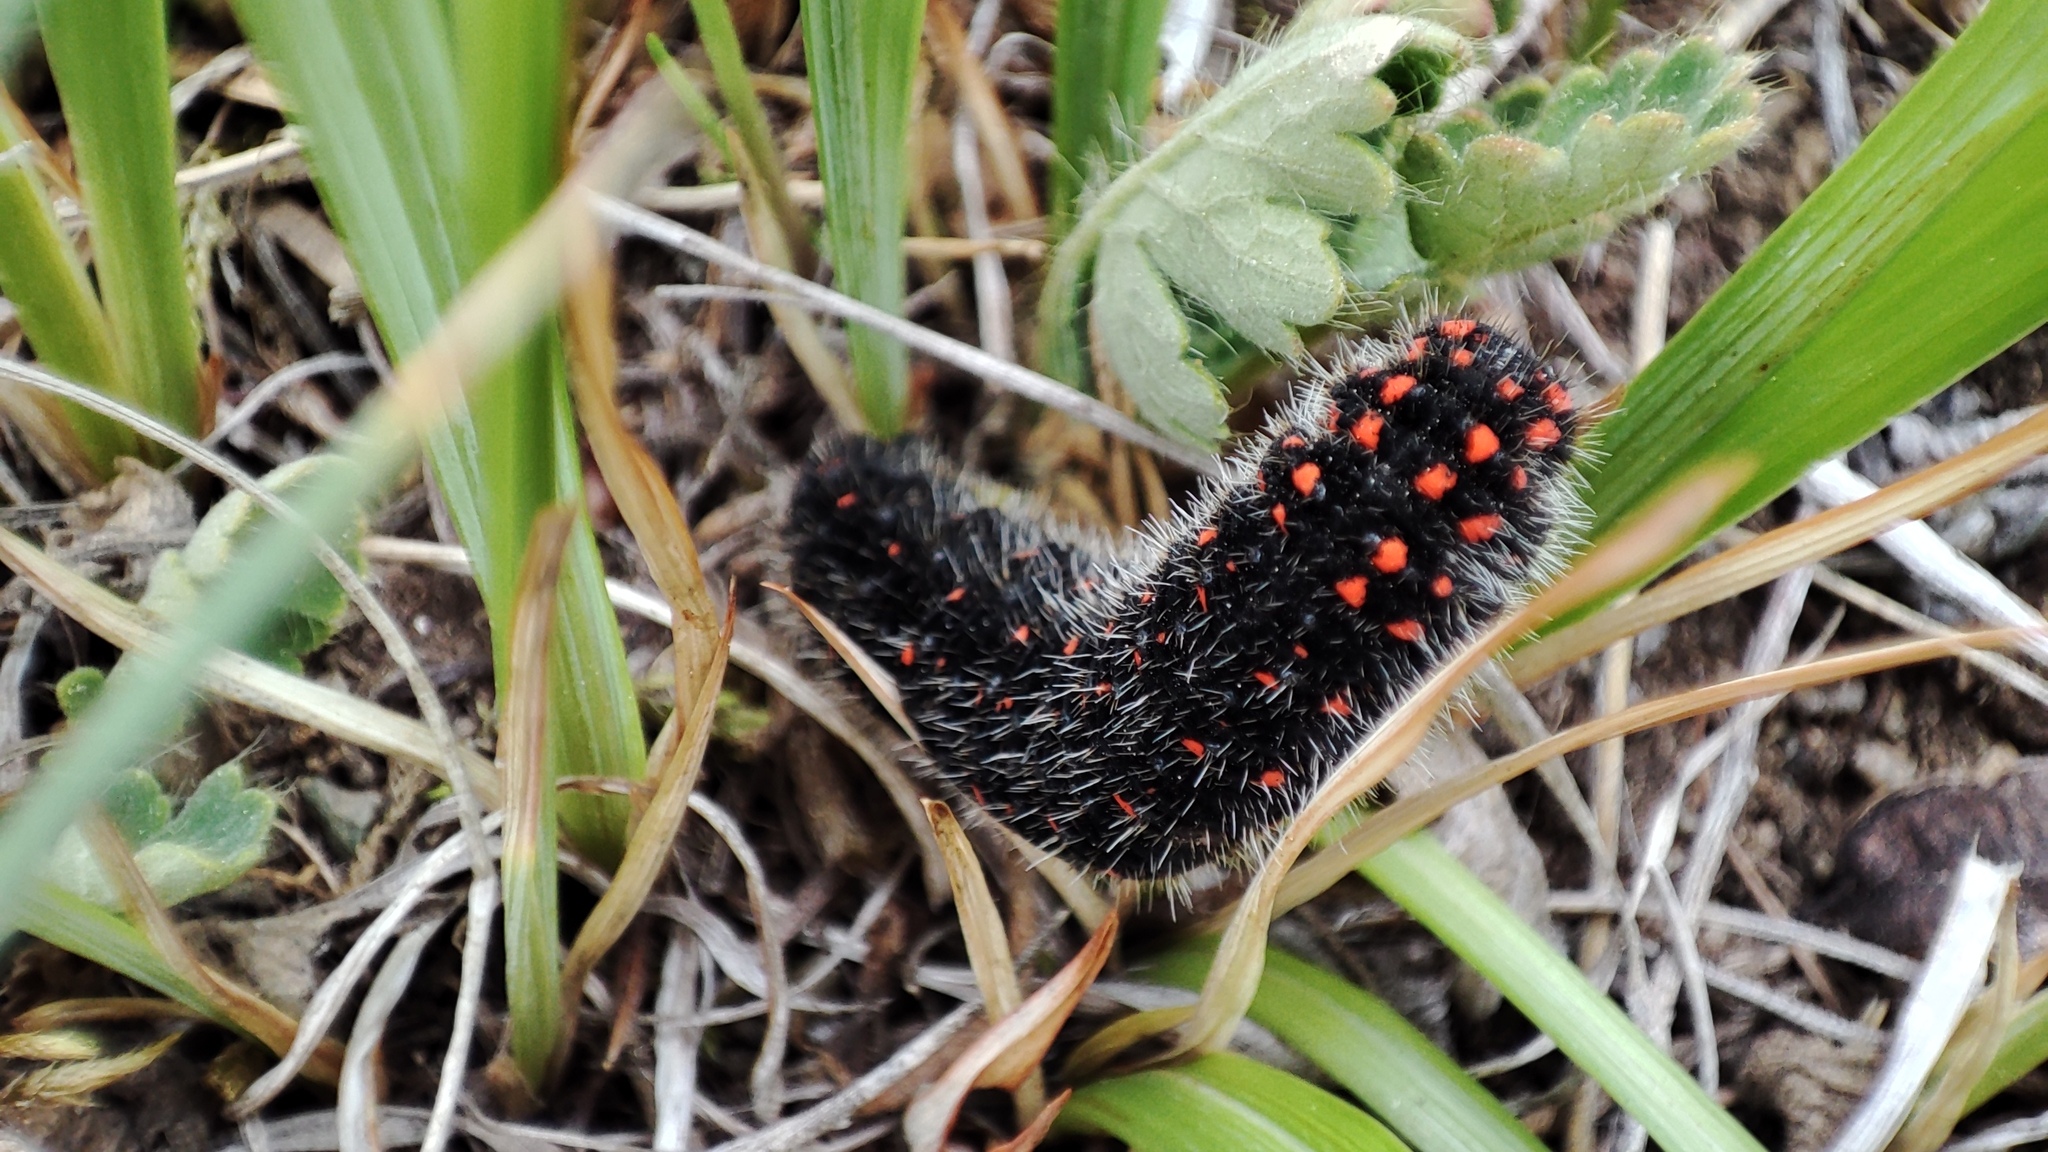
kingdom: Animalia
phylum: Arthropoda
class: Insecta
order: Lepidoptera
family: Papilionidae
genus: Parnassius
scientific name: Parnassius nomion
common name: Nomion apollo
